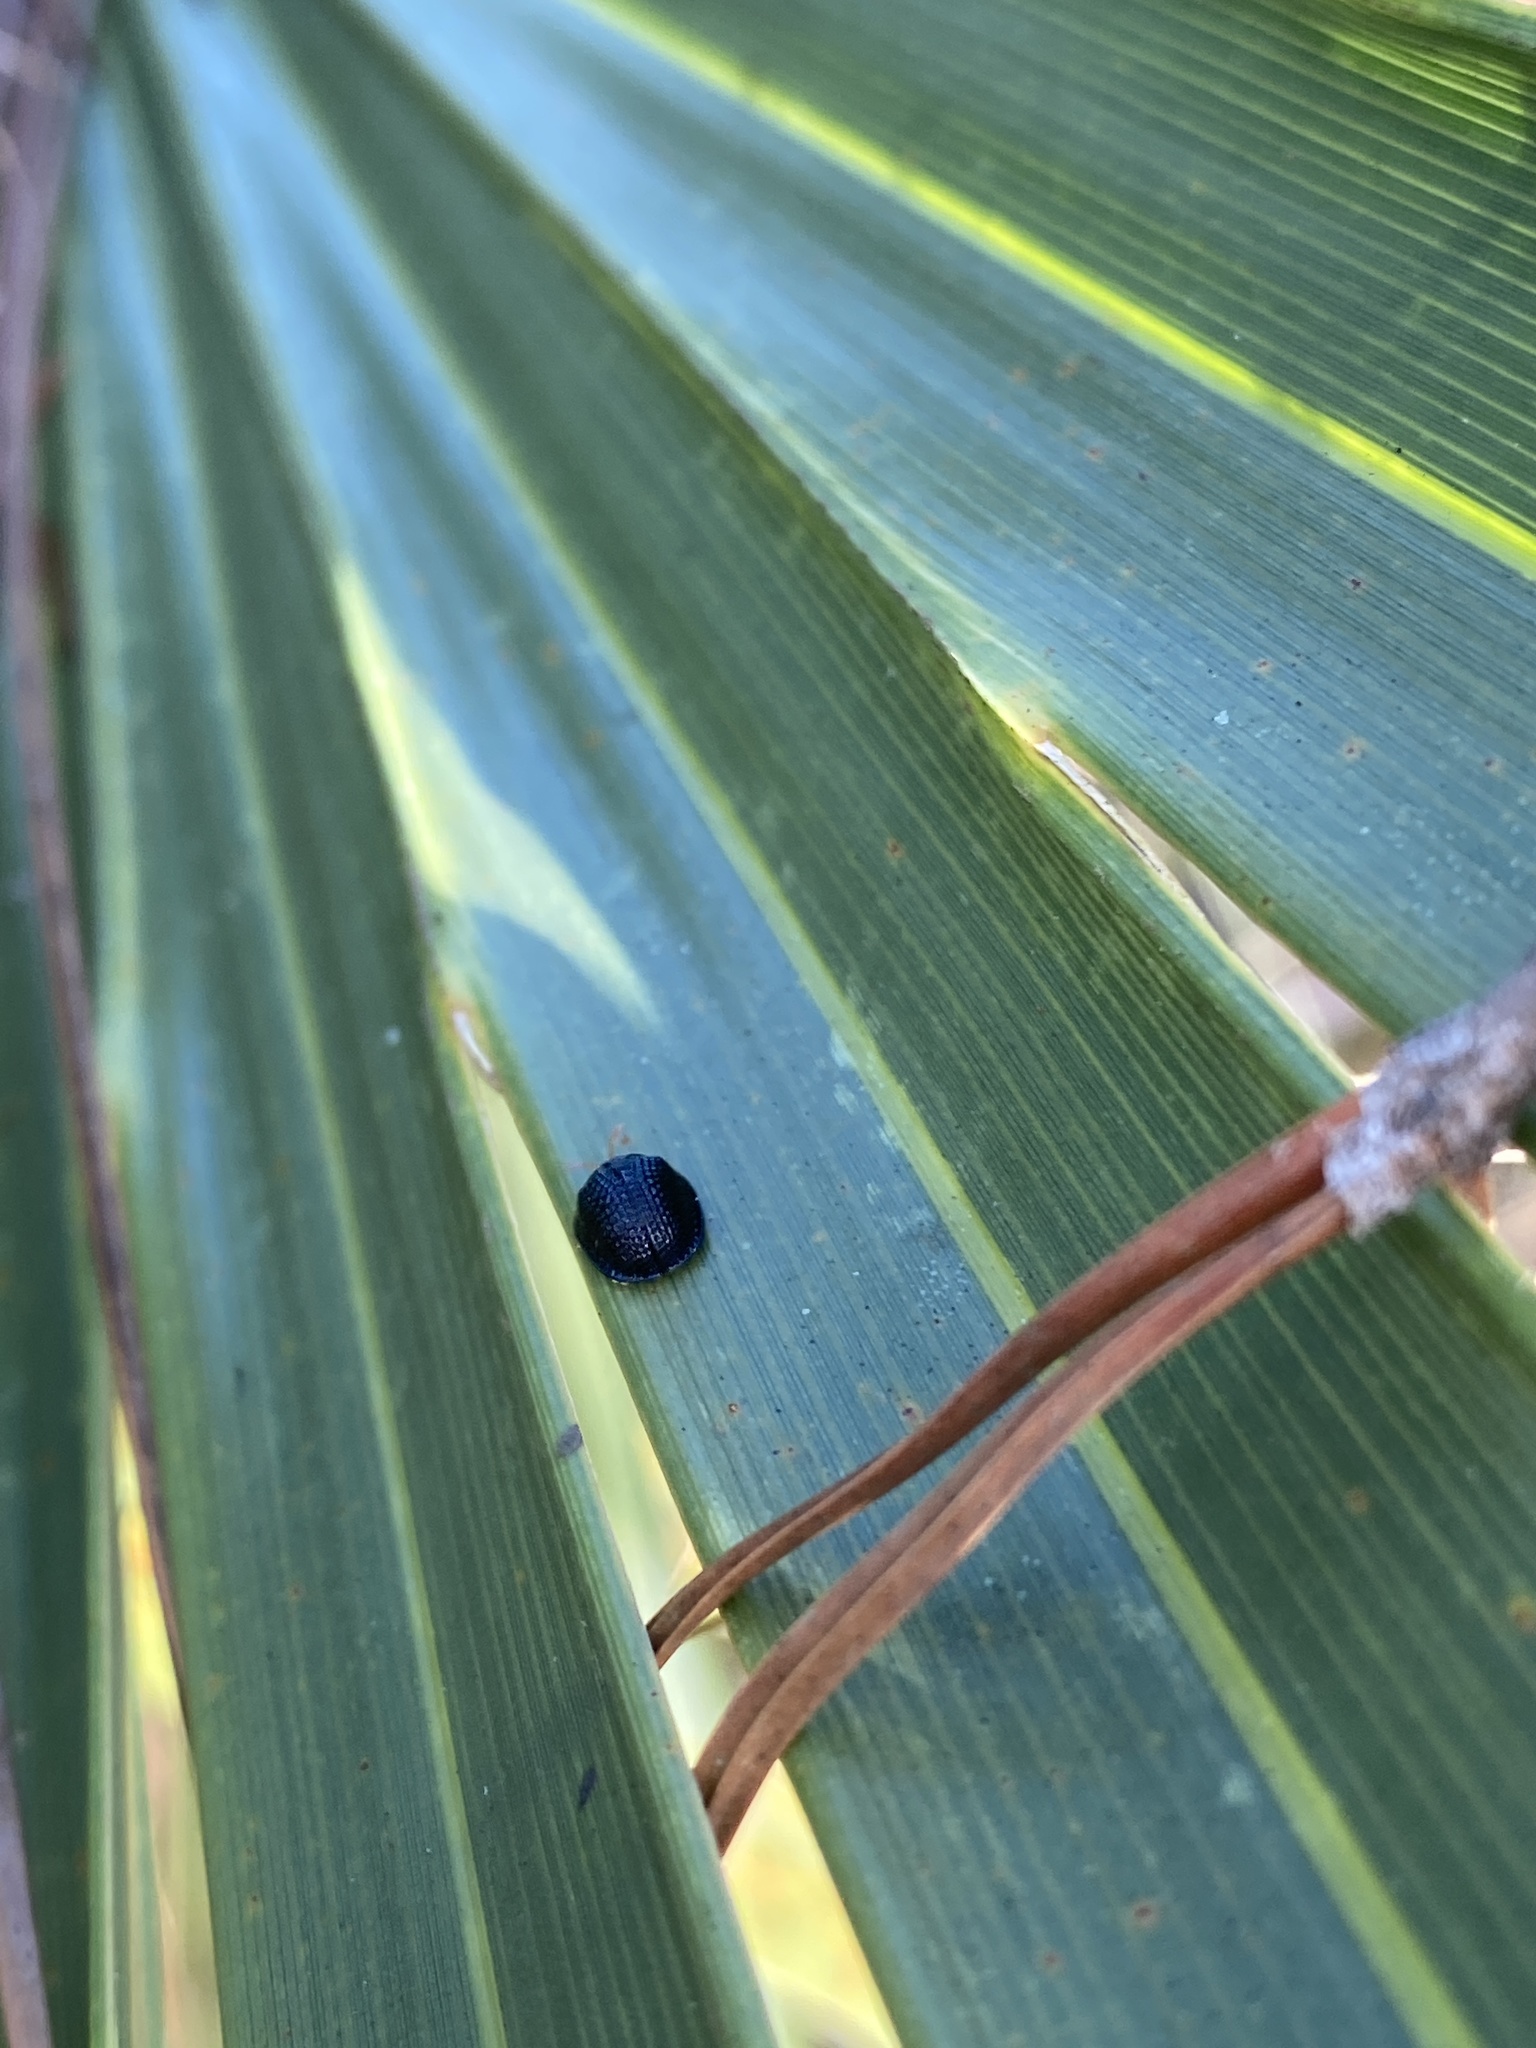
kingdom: Animalia
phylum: Arthropoda
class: Insecta
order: Coleoptera
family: Chrysomelidae
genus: Hemisphaerota
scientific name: Hemisphaerota cyanea
